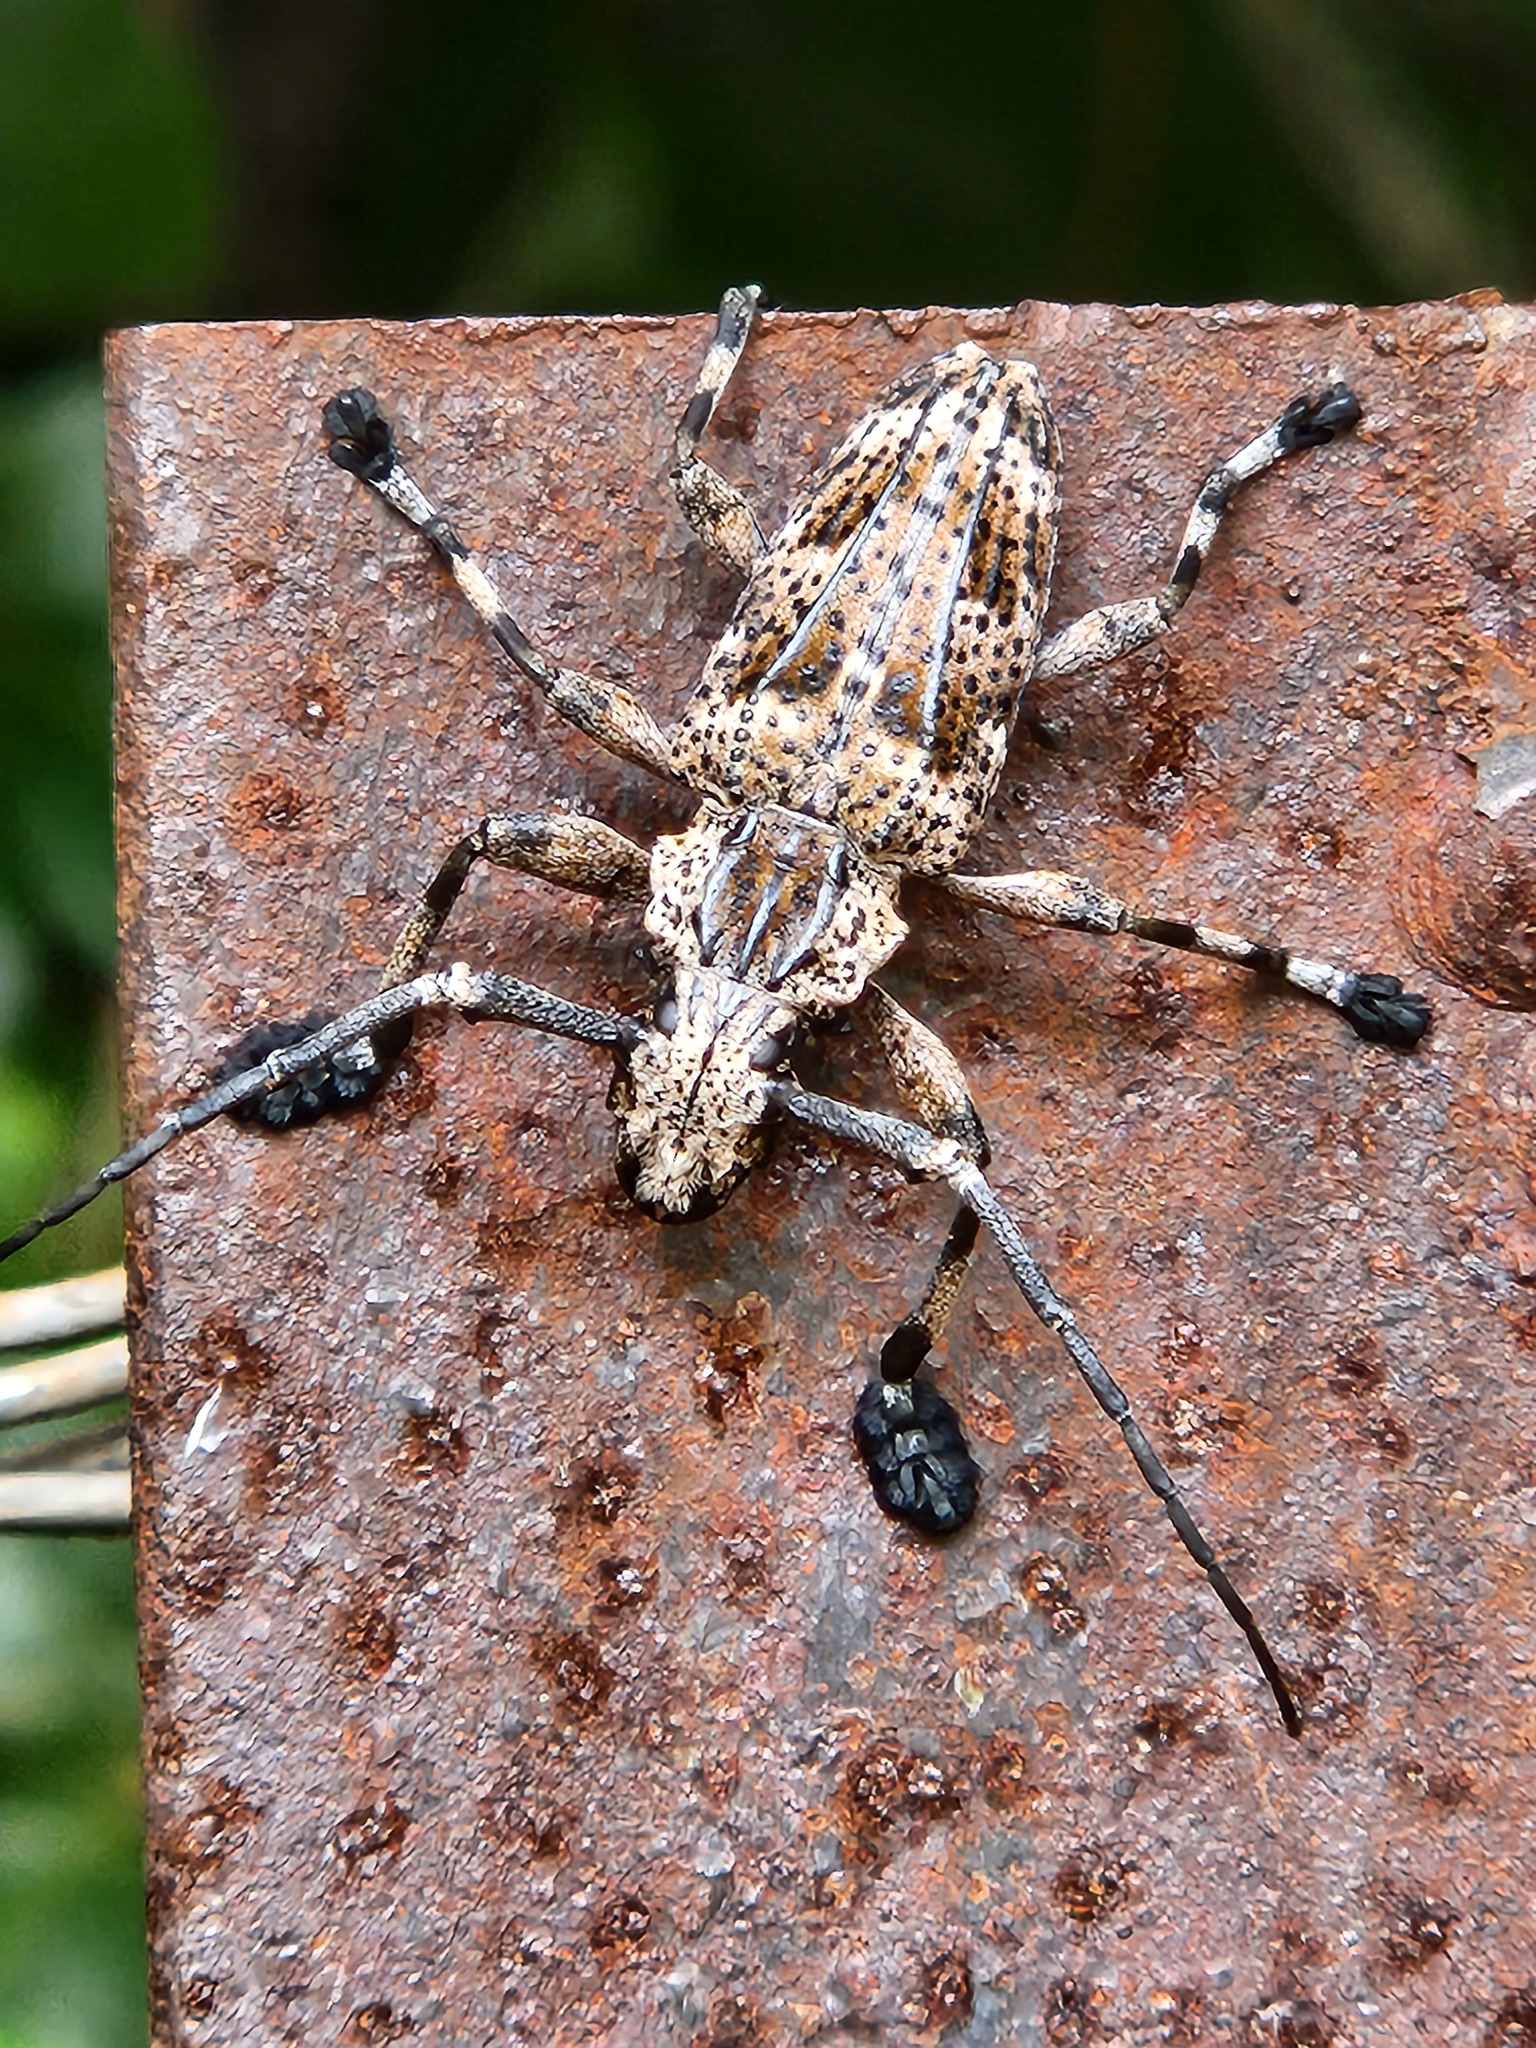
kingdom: Animalia
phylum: Arthropoda
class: Insecta
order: Coleoptera
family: Cerambycidae
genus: Steirastoma
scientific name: Steirastoma meridionale
